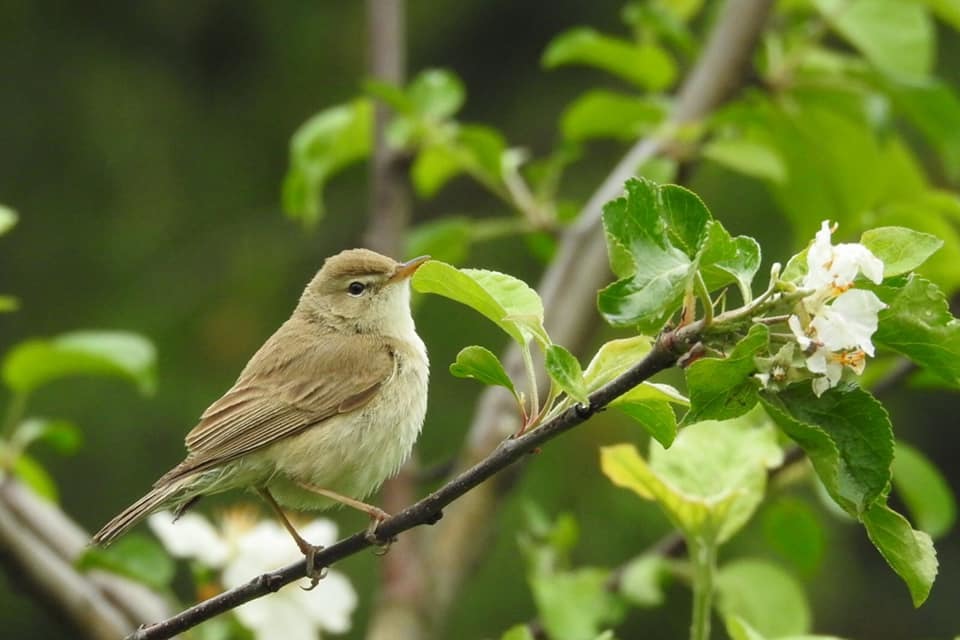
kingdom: Animalia
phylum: Chordata
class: Aves
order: Passeriformes
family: Acrocephalidae
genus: Iduna
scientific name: Iduna caligata
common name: Booted warbler
